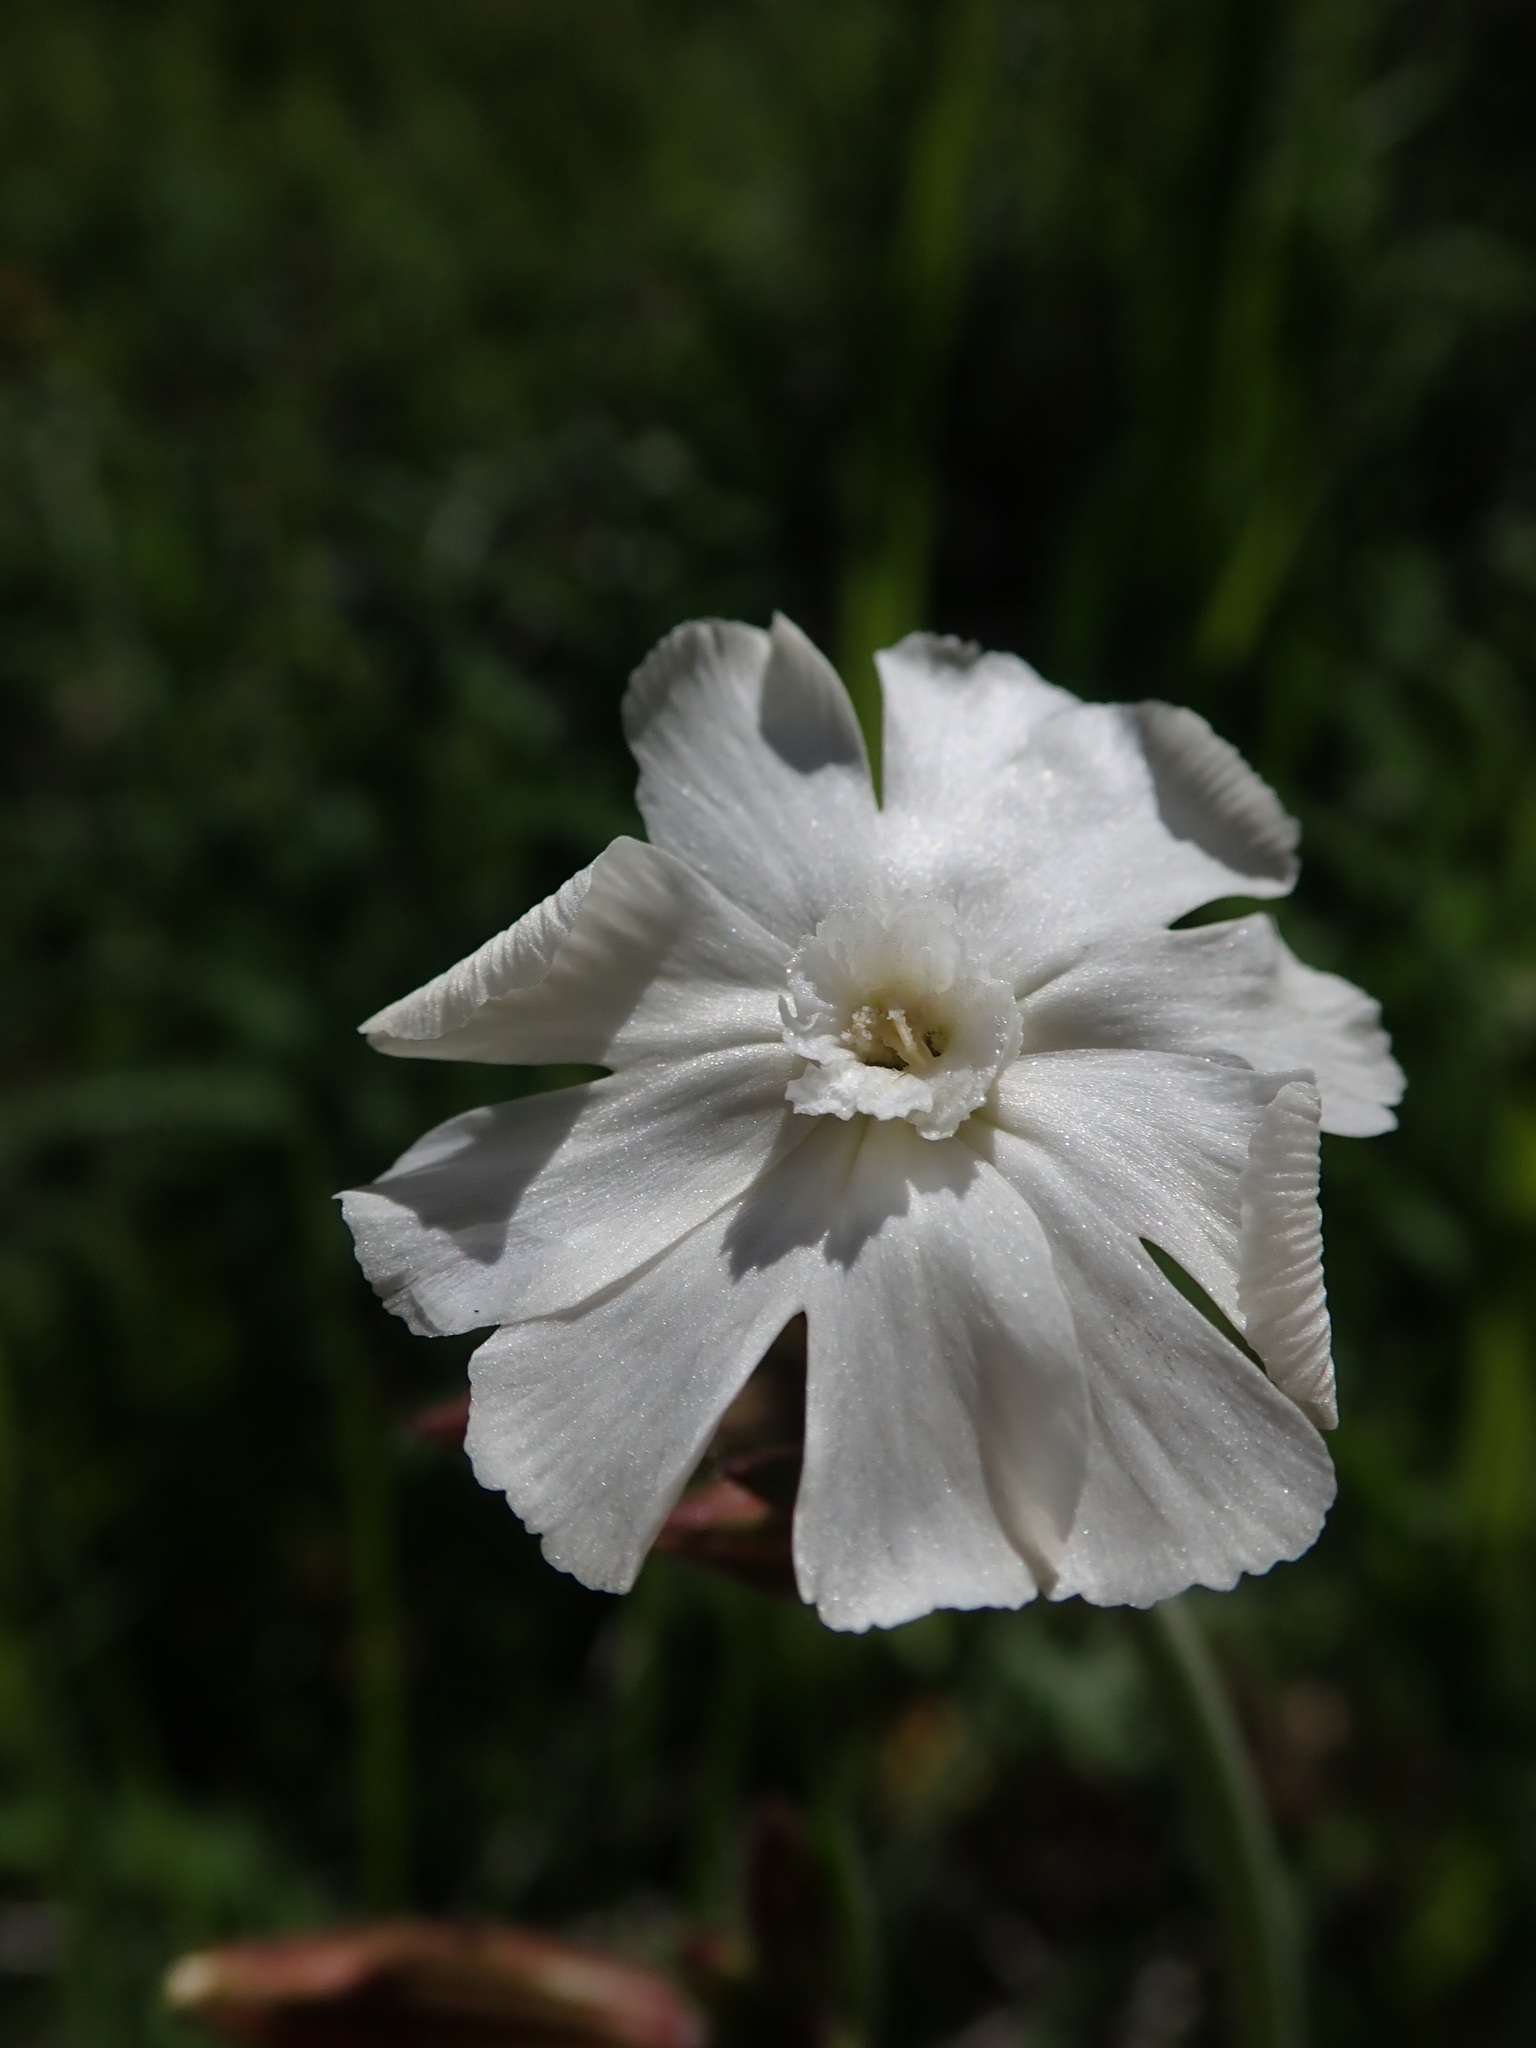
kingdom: Plantae
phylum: Tracheophyta
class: Magnoliopsida
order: Caryophyllales
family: Caryophyllaceae
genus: Silene
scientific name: Silene latifolia
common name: White campion
